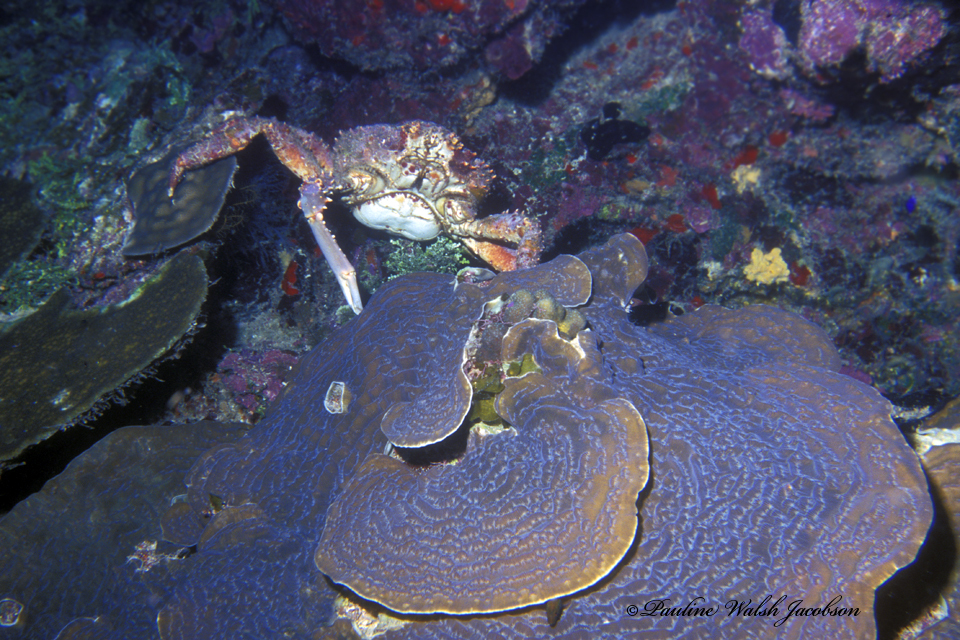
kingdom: Animalia
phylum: Arthropoda
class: Malacostraca
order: Decapoda
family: Mithracidae
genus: Maguimithrax
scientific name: Maguimithrax spinosissimus
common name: Spiny spider crab
